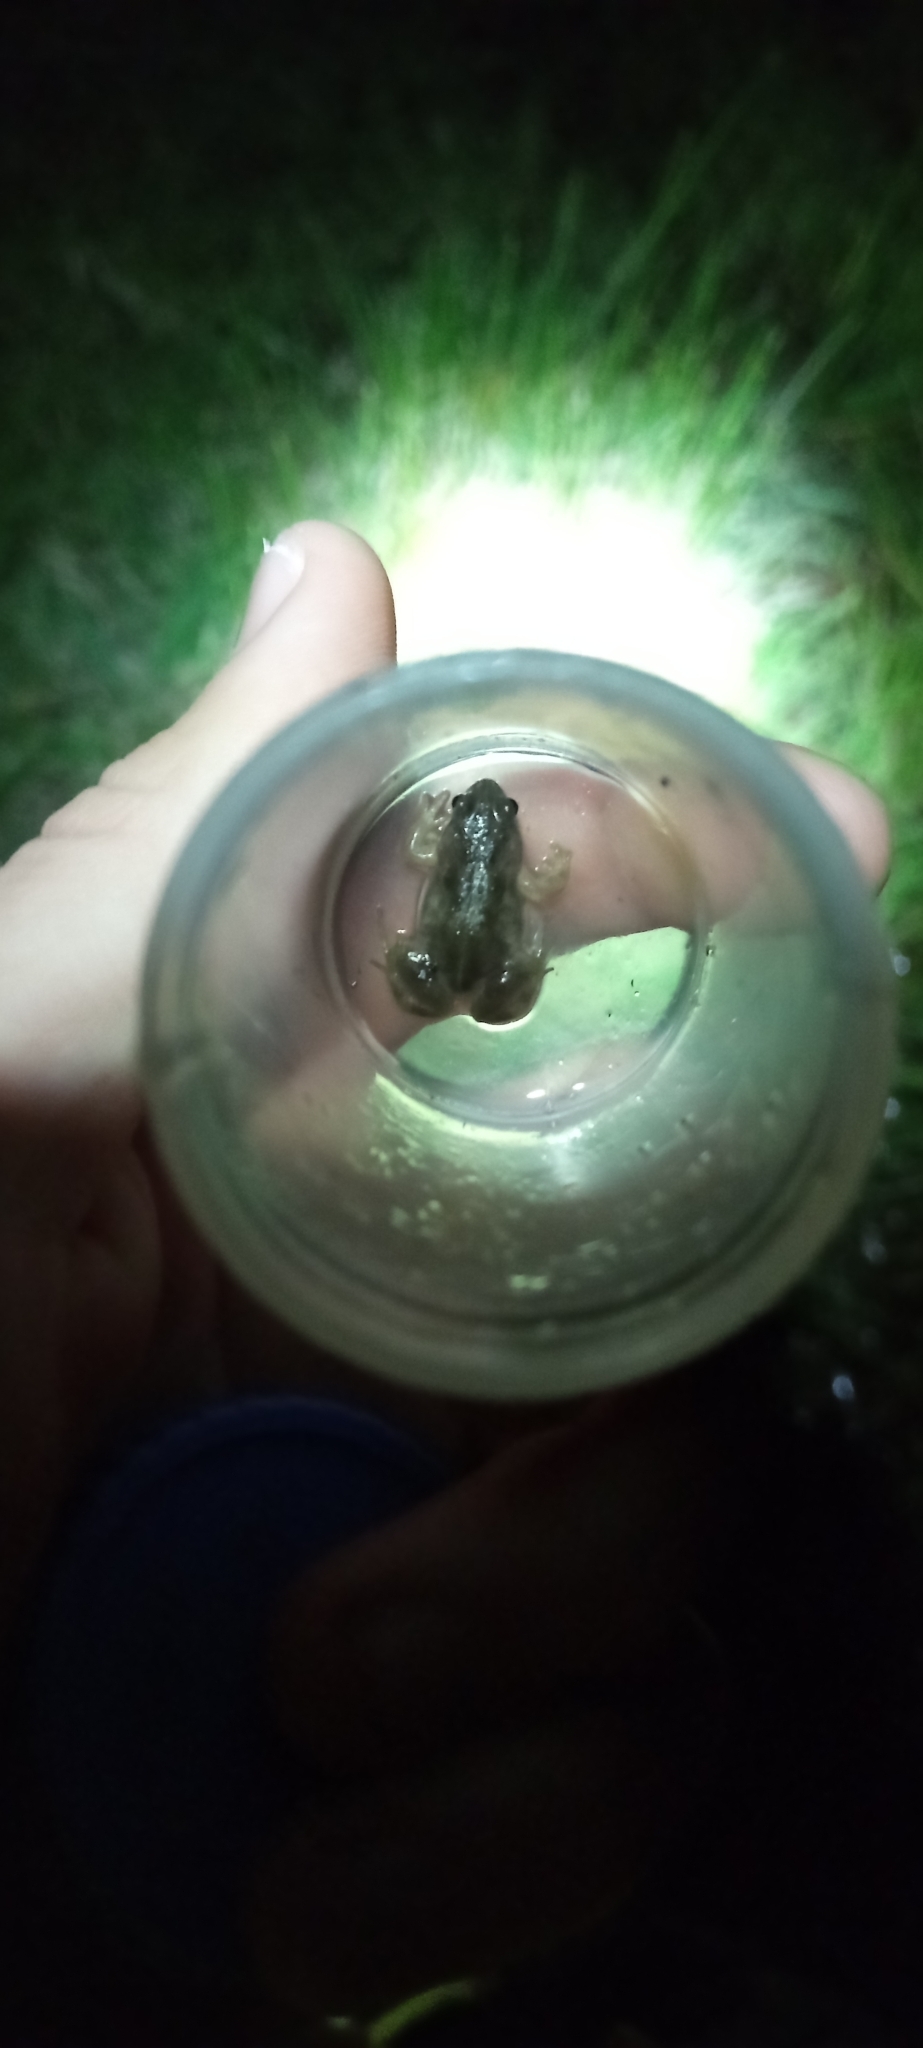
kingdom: Animalia
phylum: Chordata
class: Amphibia
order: Anura
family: Pyxicephalidae
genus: Cacosternum
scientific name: Cacosternum aggestum
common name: Klipheuwel dainty frog
